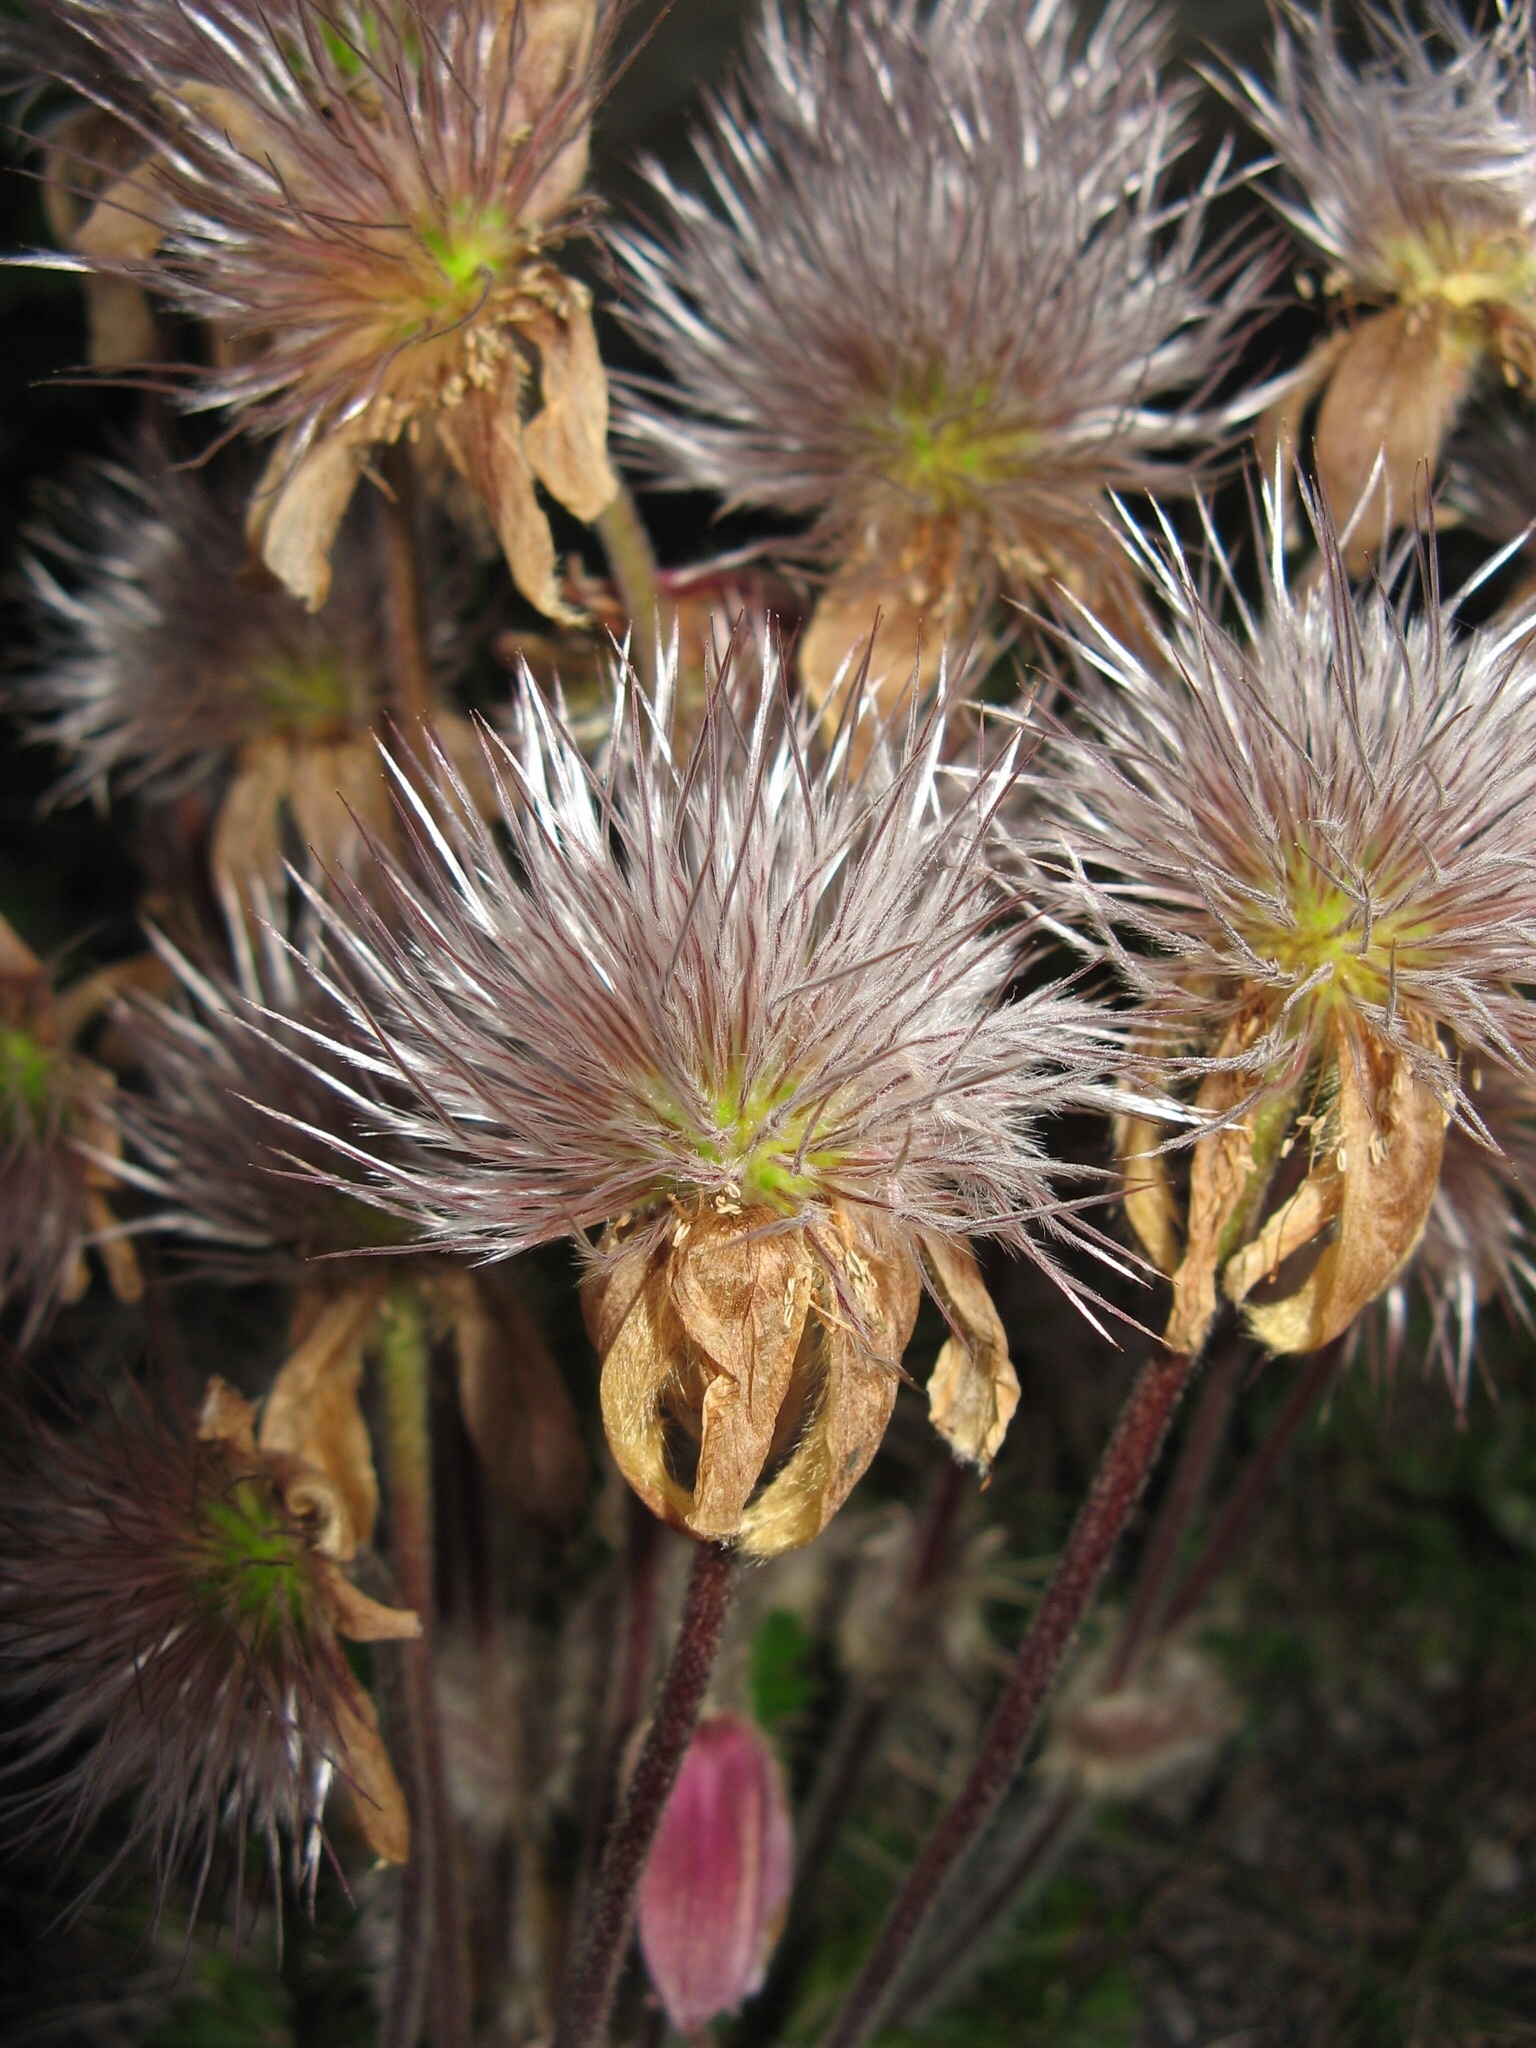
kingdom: Plantae
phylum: Tracheophyta
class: Magnoliopsida
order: Ranunculales
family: Ranunculaceae
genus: Pulsatilla
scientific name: Pulsatilla vernalis
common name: Spring pasque flower
